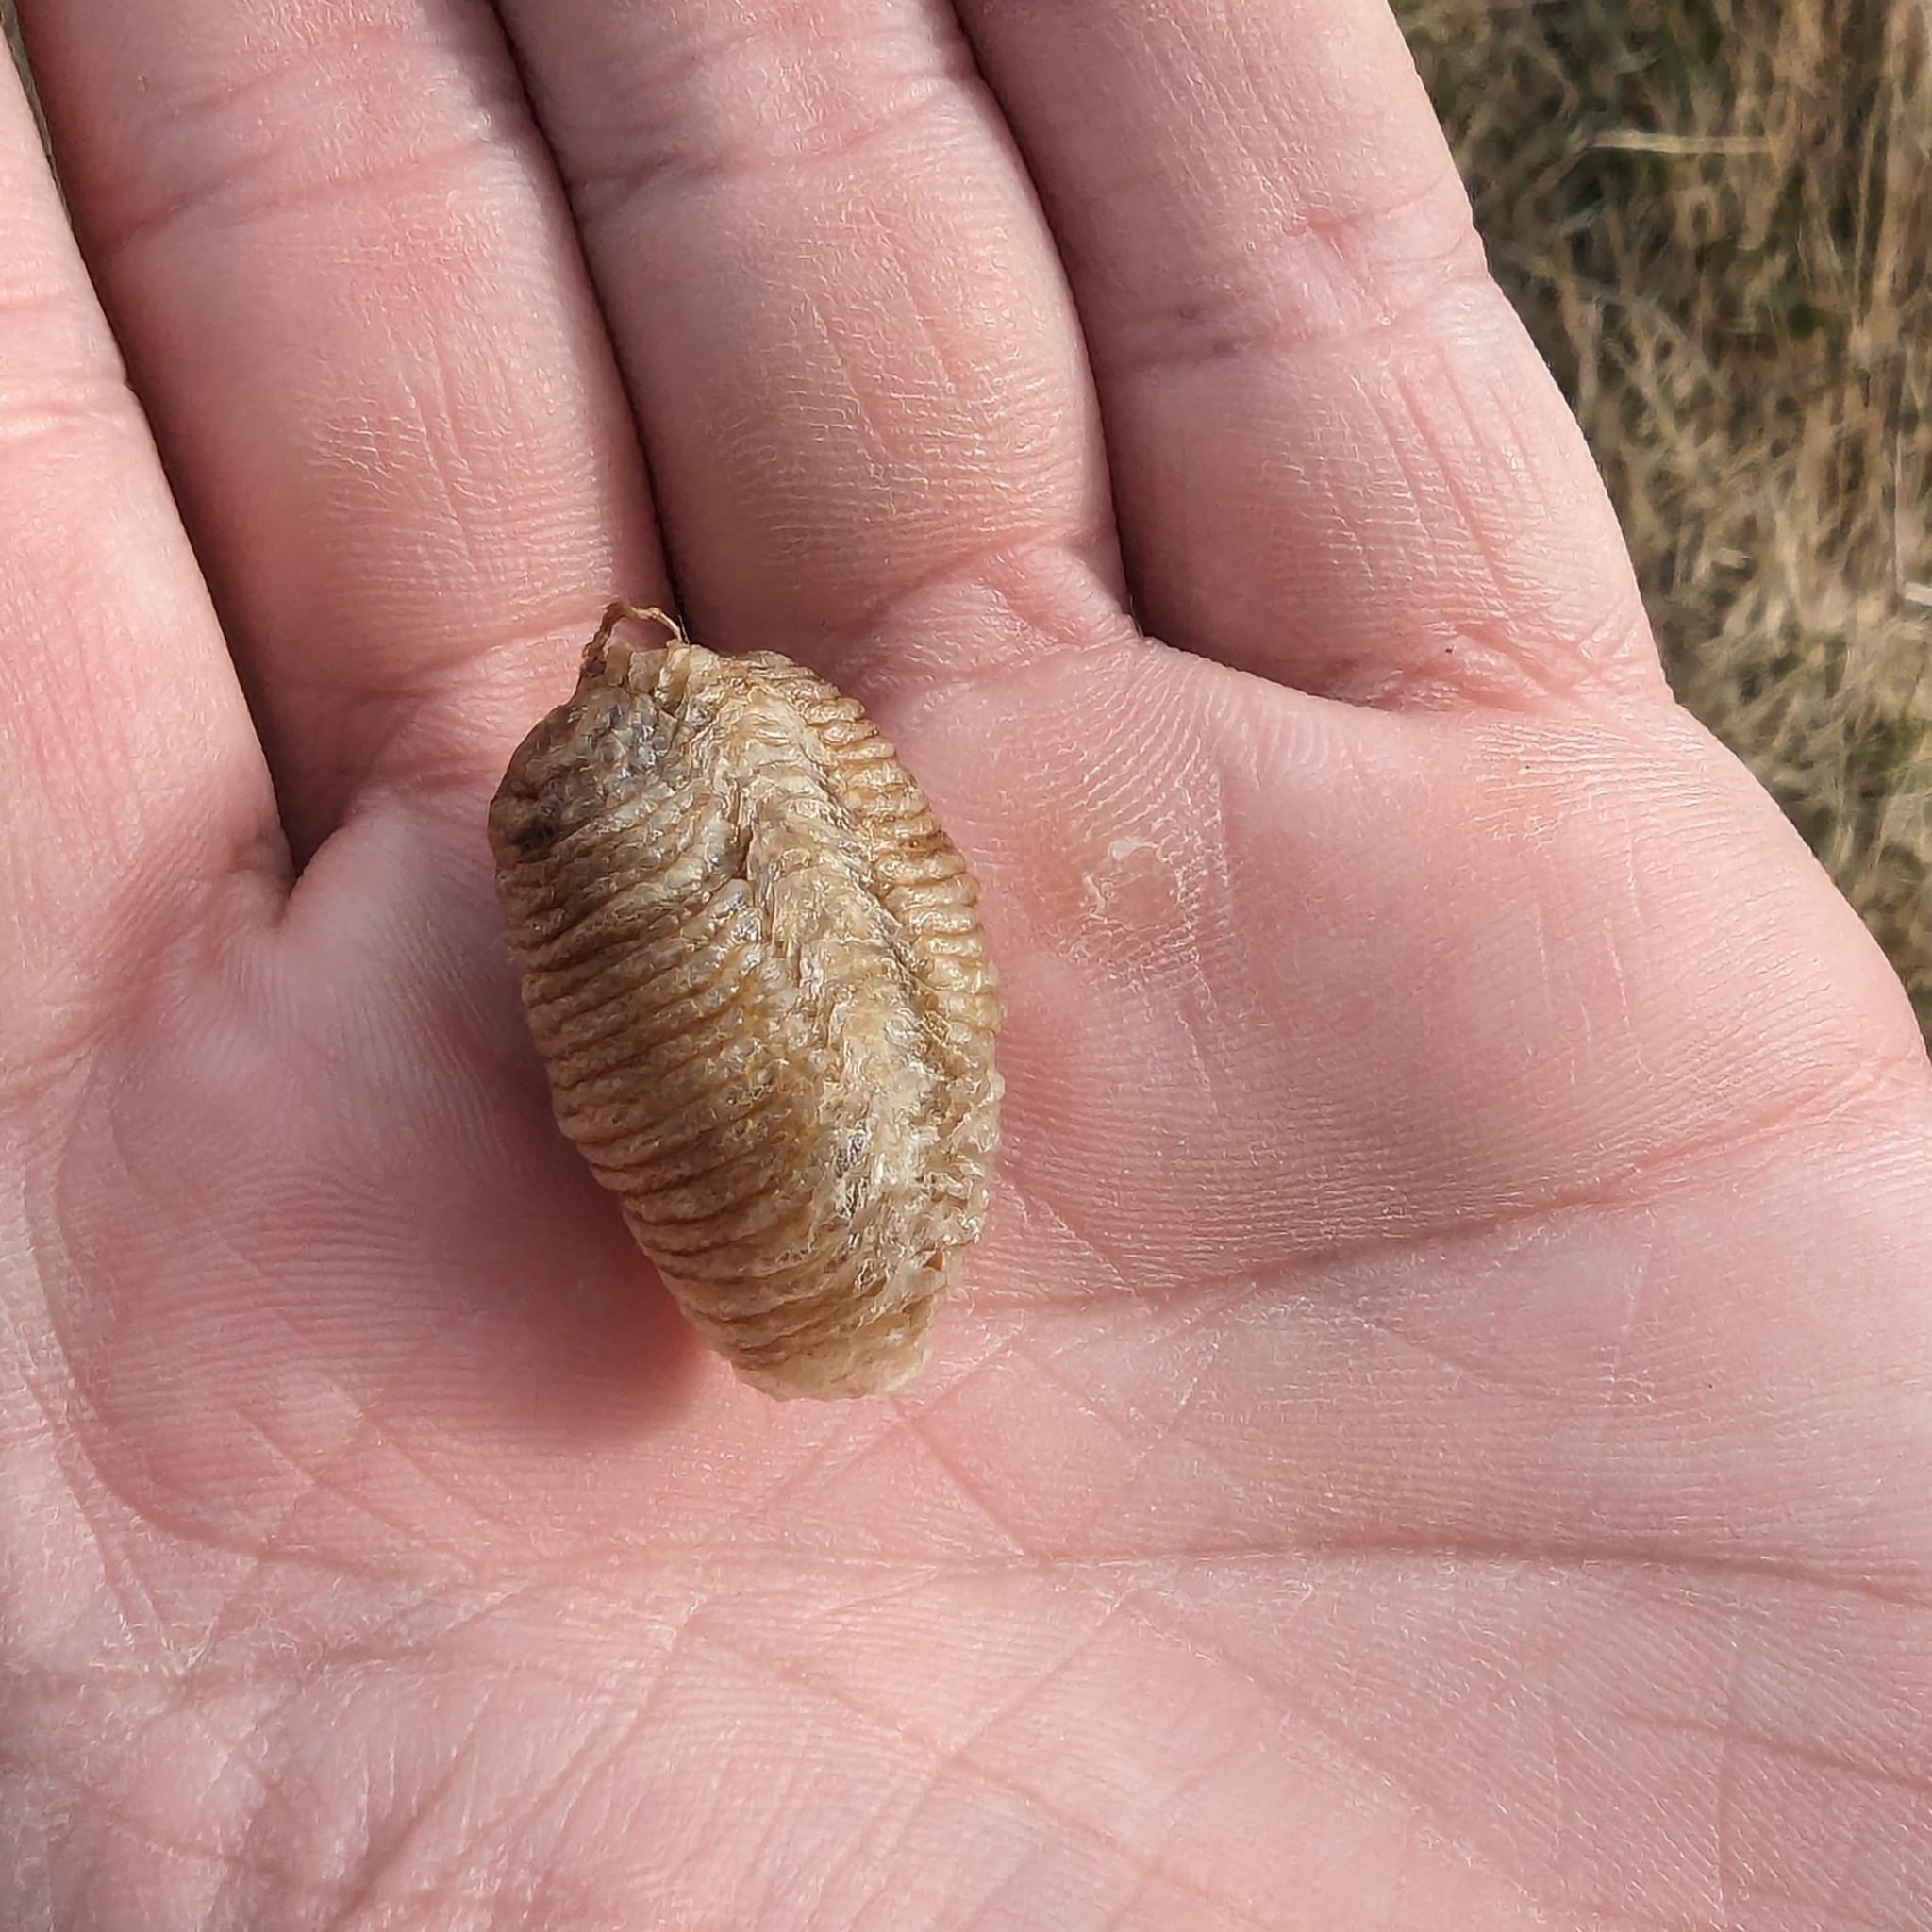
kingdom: Animalia
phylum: Arthropoda
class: Insecta
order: Mantodea
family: Mantidae
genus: Mantis
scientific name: Mantis religiosa
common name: Praying mantis
